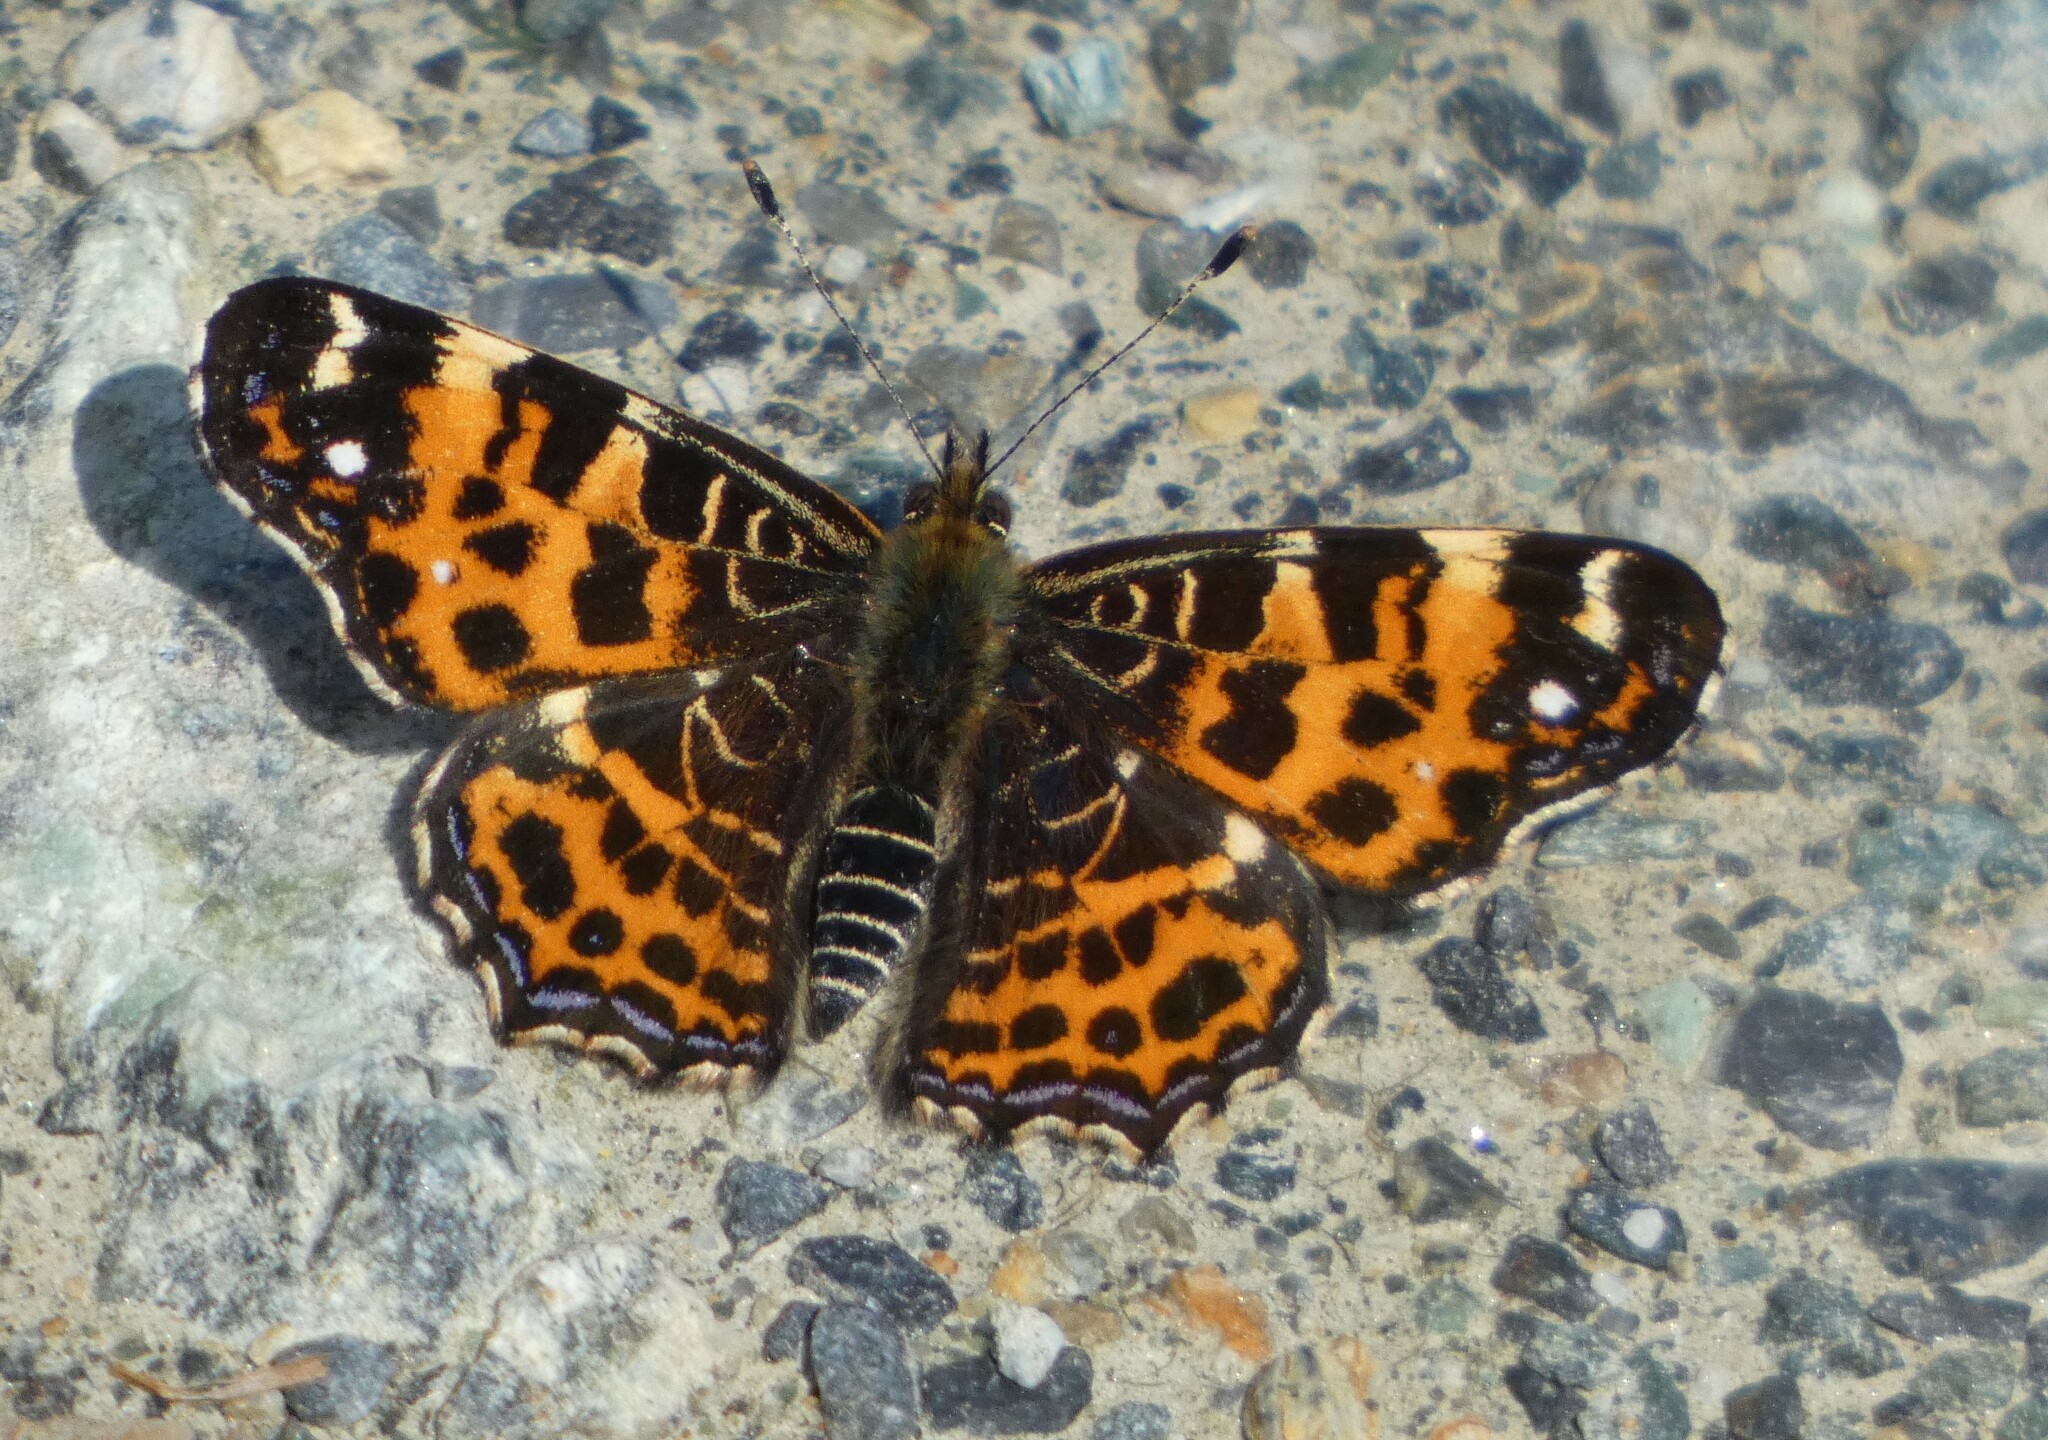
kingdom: Animalia
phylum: Arthropoda
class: Insecta
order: Lepidoptera
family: Nymphalidae
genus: Araschnia
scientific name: Araschnia levana
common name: Map butterfly
